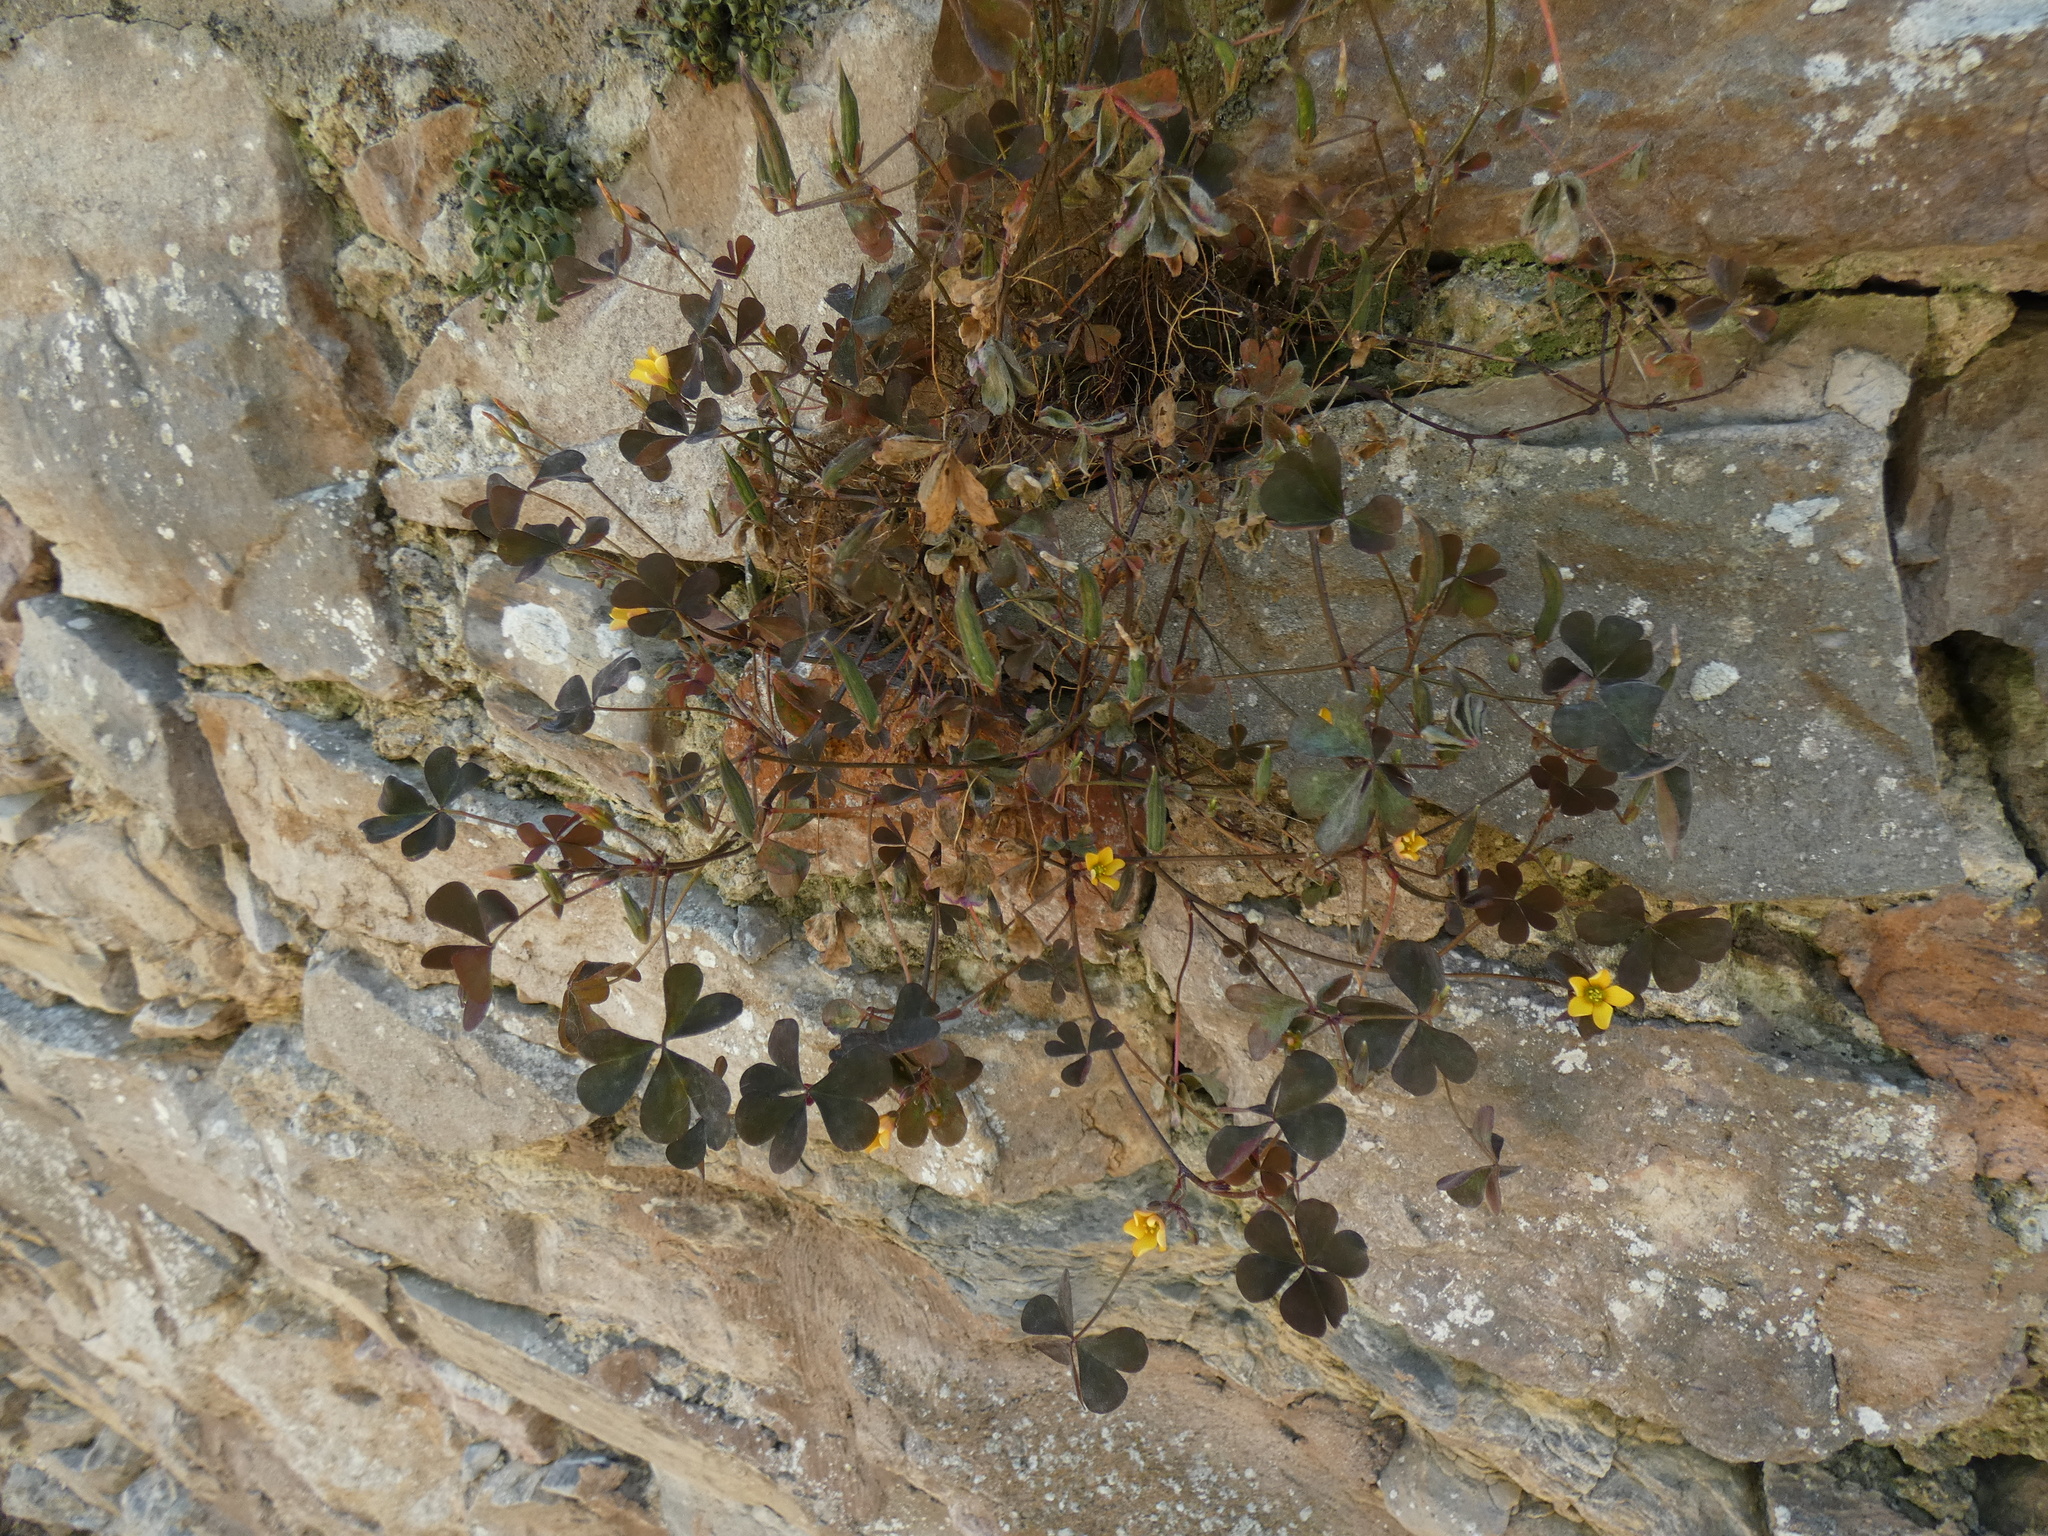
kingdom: Plantae
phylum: Tracheophyta
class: Magnoliopsida
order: Oxalidales
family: Oxalidaceae
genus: Oxalis
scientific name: Oxalis corniculata
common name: Procumbent yellow-sorrel
